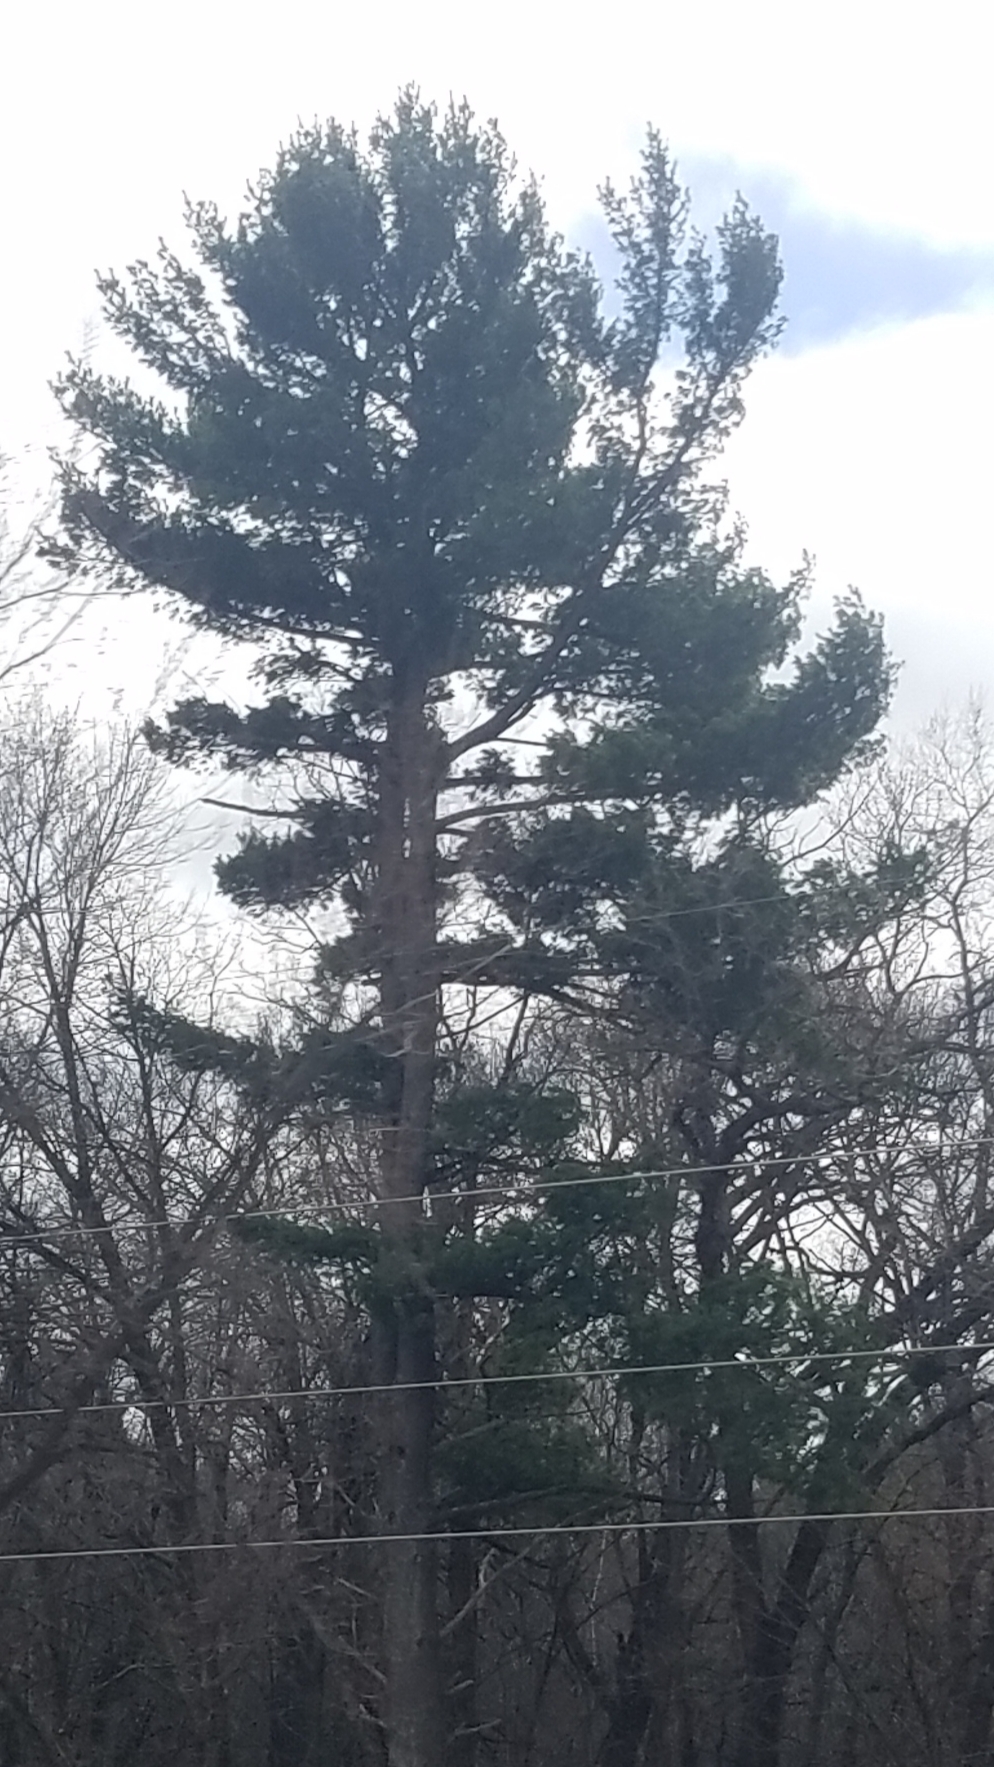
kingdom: Plantae
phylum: Tracheophyta
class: Pinopsida
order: Pinales
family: Pinaceae
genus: Pinus
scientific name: Pinus strobus
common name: Weymouth pine
